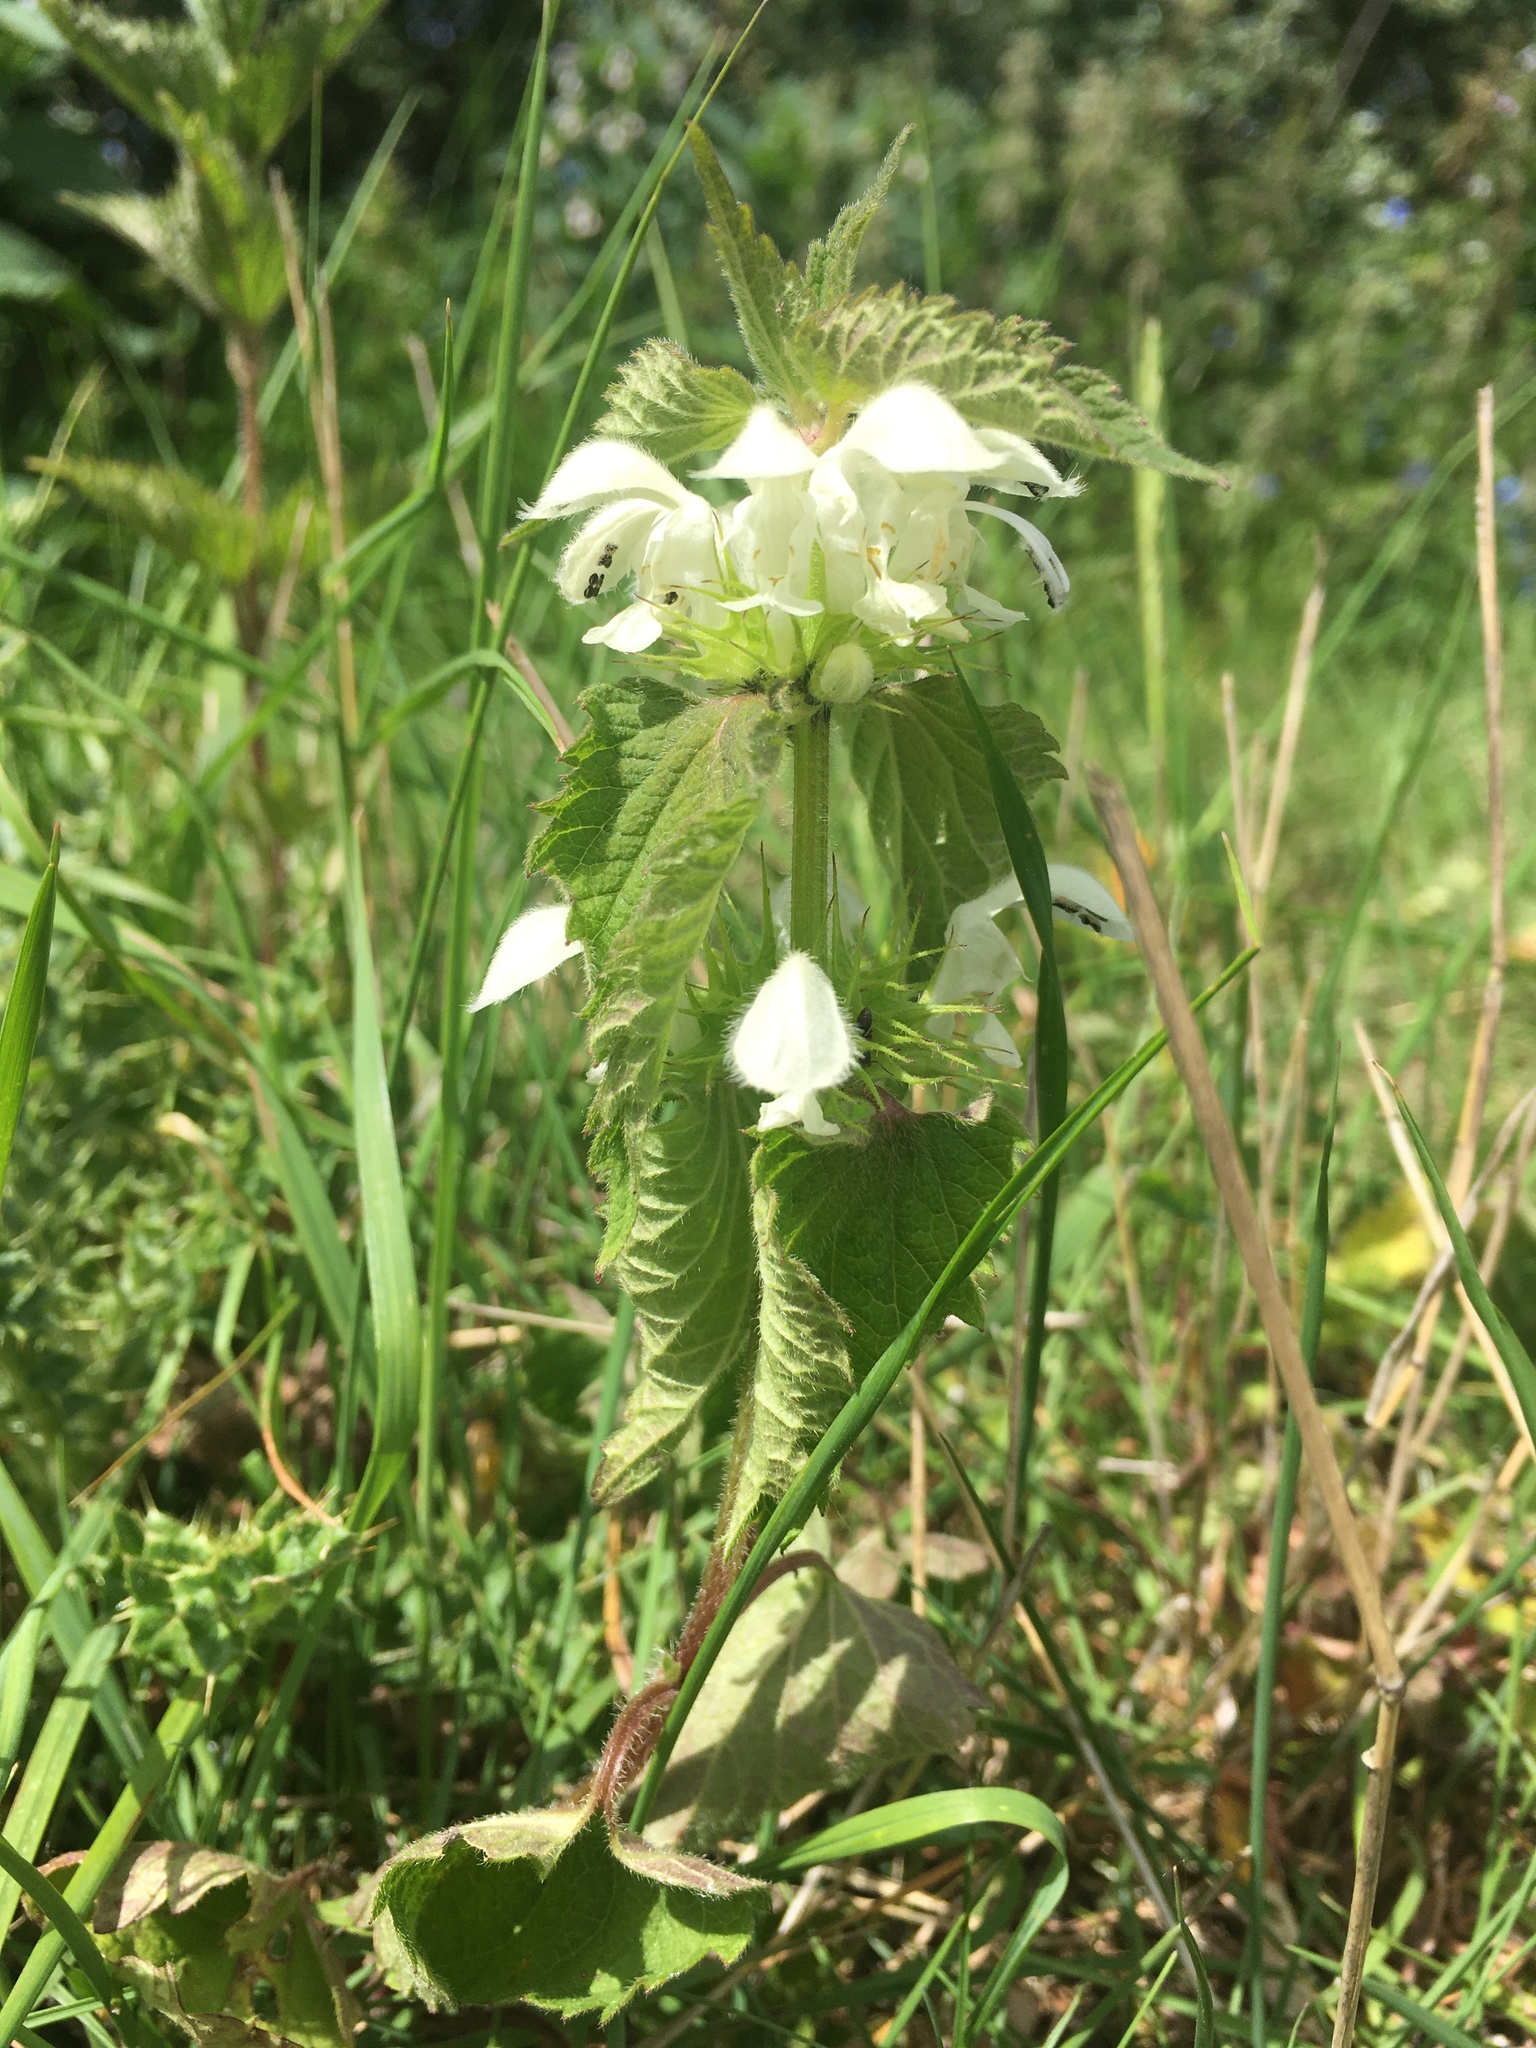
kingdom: Plantae
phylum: Tracheophyta
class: Magnoliopsida
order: Lamiales
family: Lamiaceae
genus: Lamium
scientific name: Lamium album
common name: White dead-nettle
